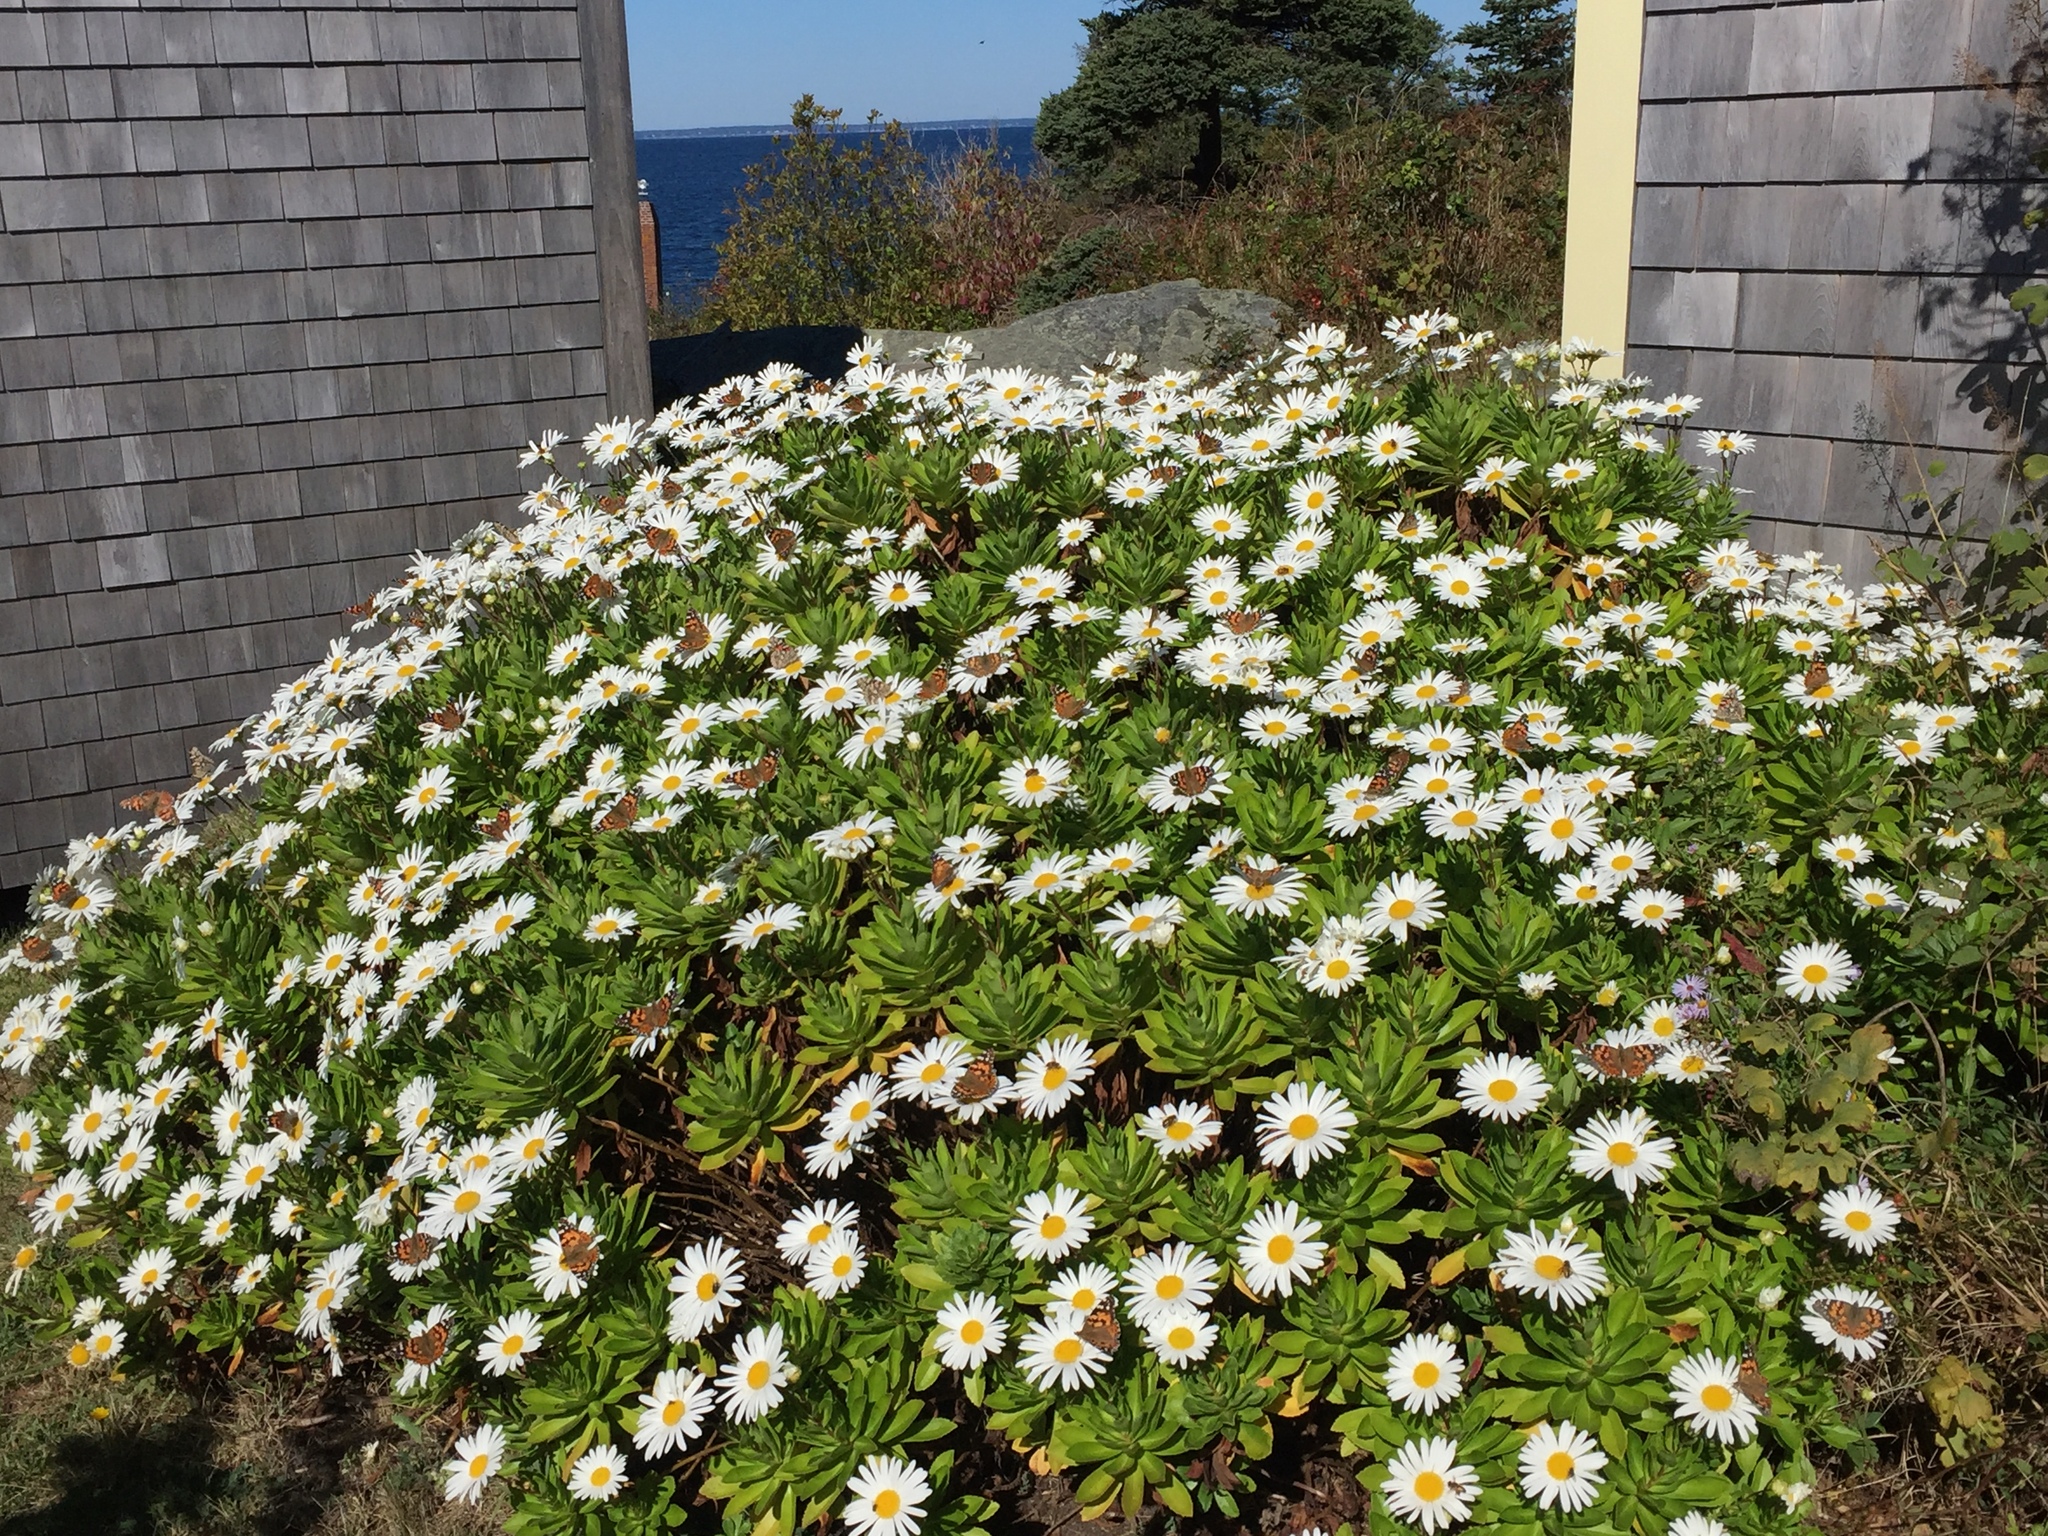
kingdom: Animalia
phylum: Arthropoda
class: Insecta
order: Lepidoptera
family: Nymphalidae
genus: Vanessa
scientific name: Vanessa cardui
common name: Painted lady
